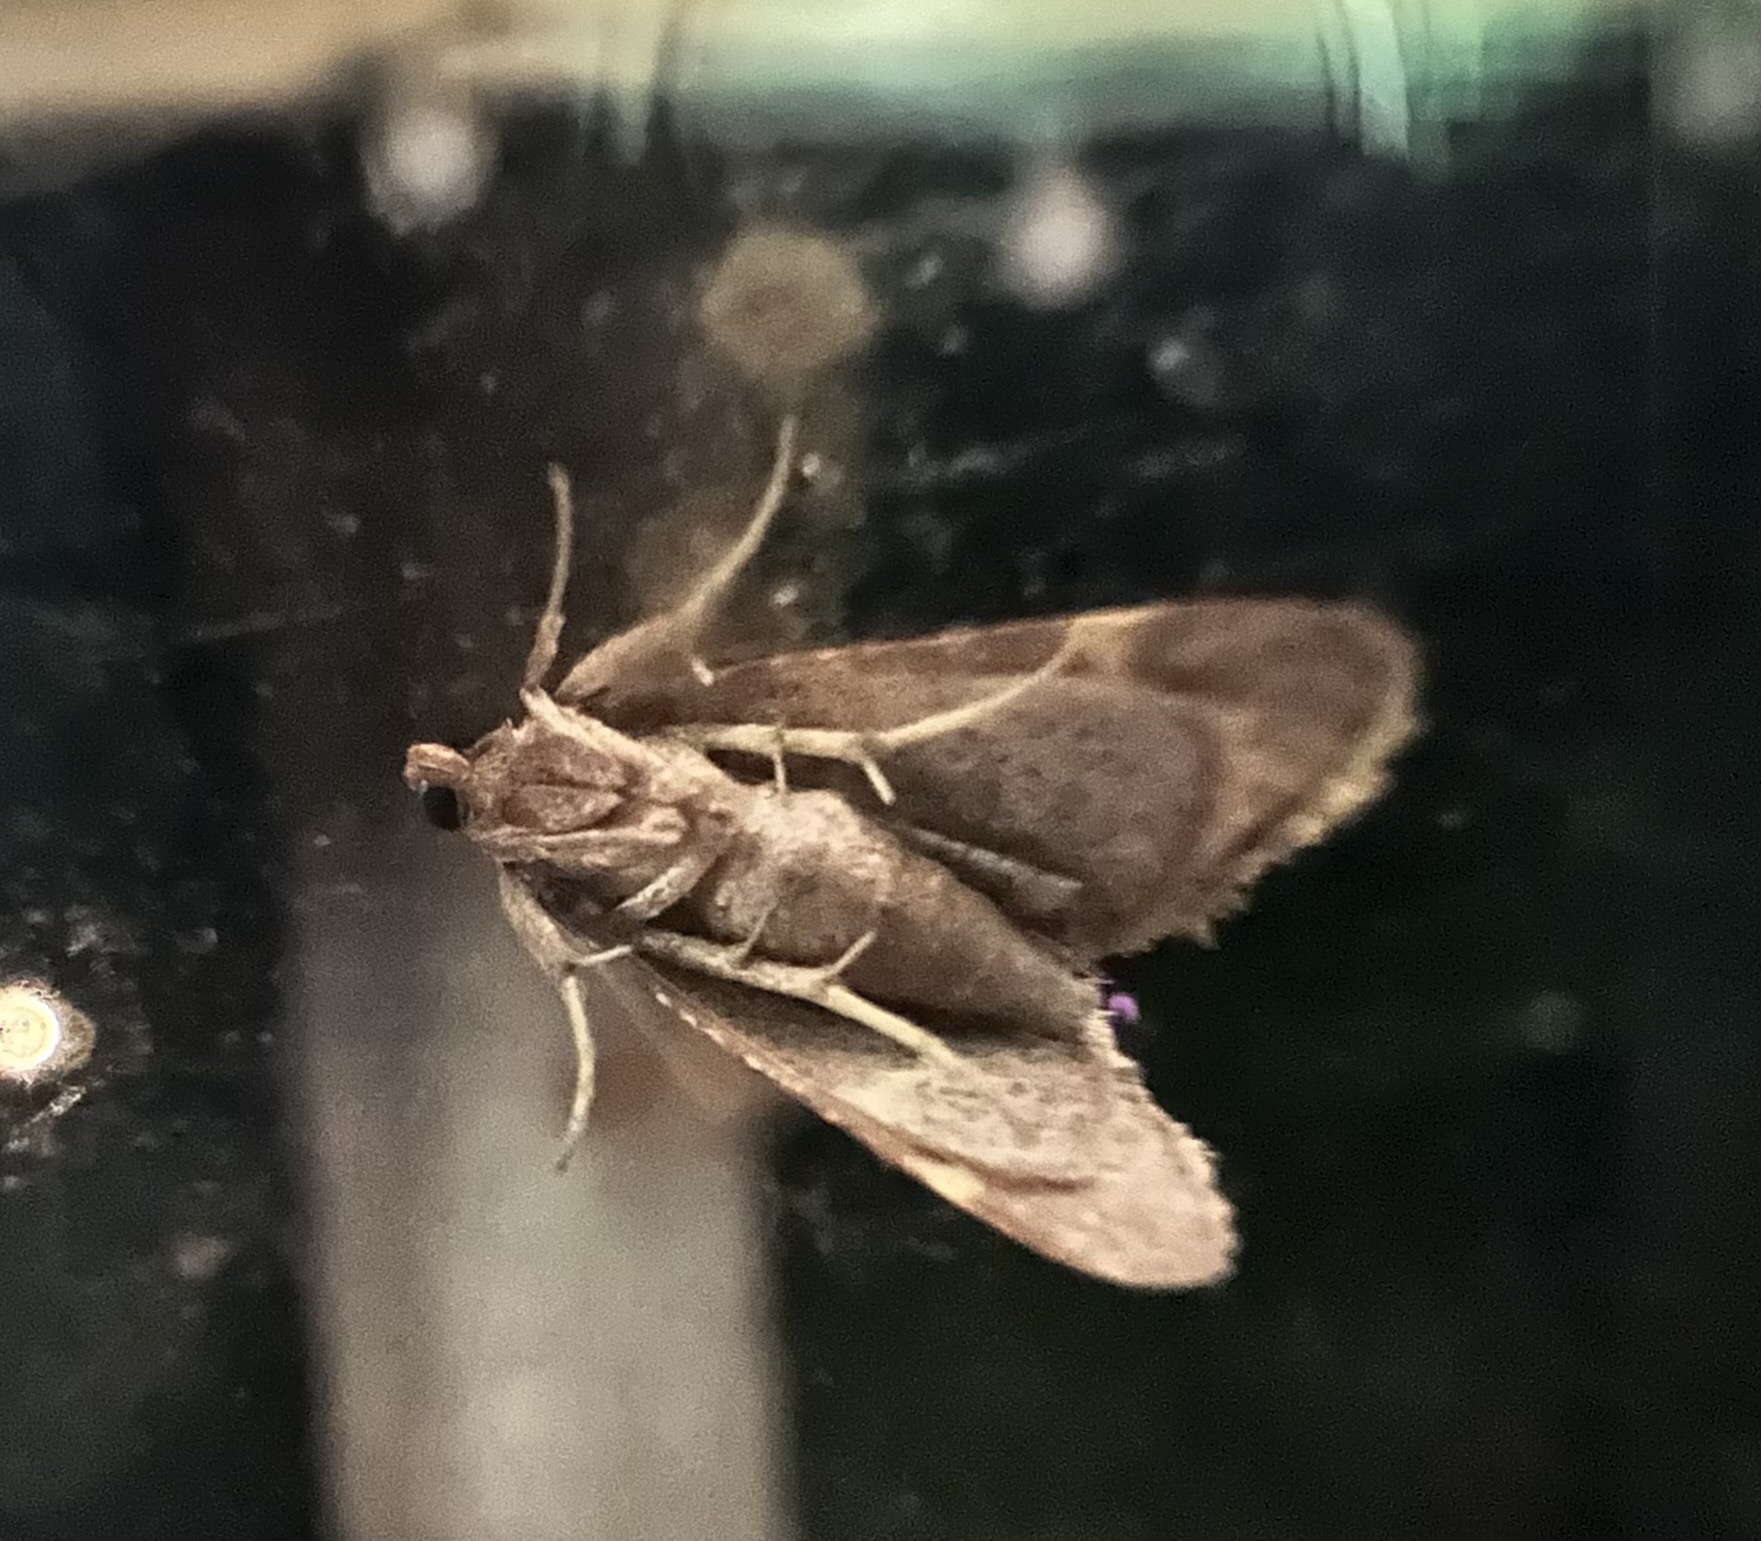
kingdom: Animalia
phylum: Arthropoda
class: Insecta
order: Lepidoptera
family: Pyralidae
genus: Hypsopygia
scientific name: Hypsopygia olinalis
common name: Yellow-fringed dolichomia moth
